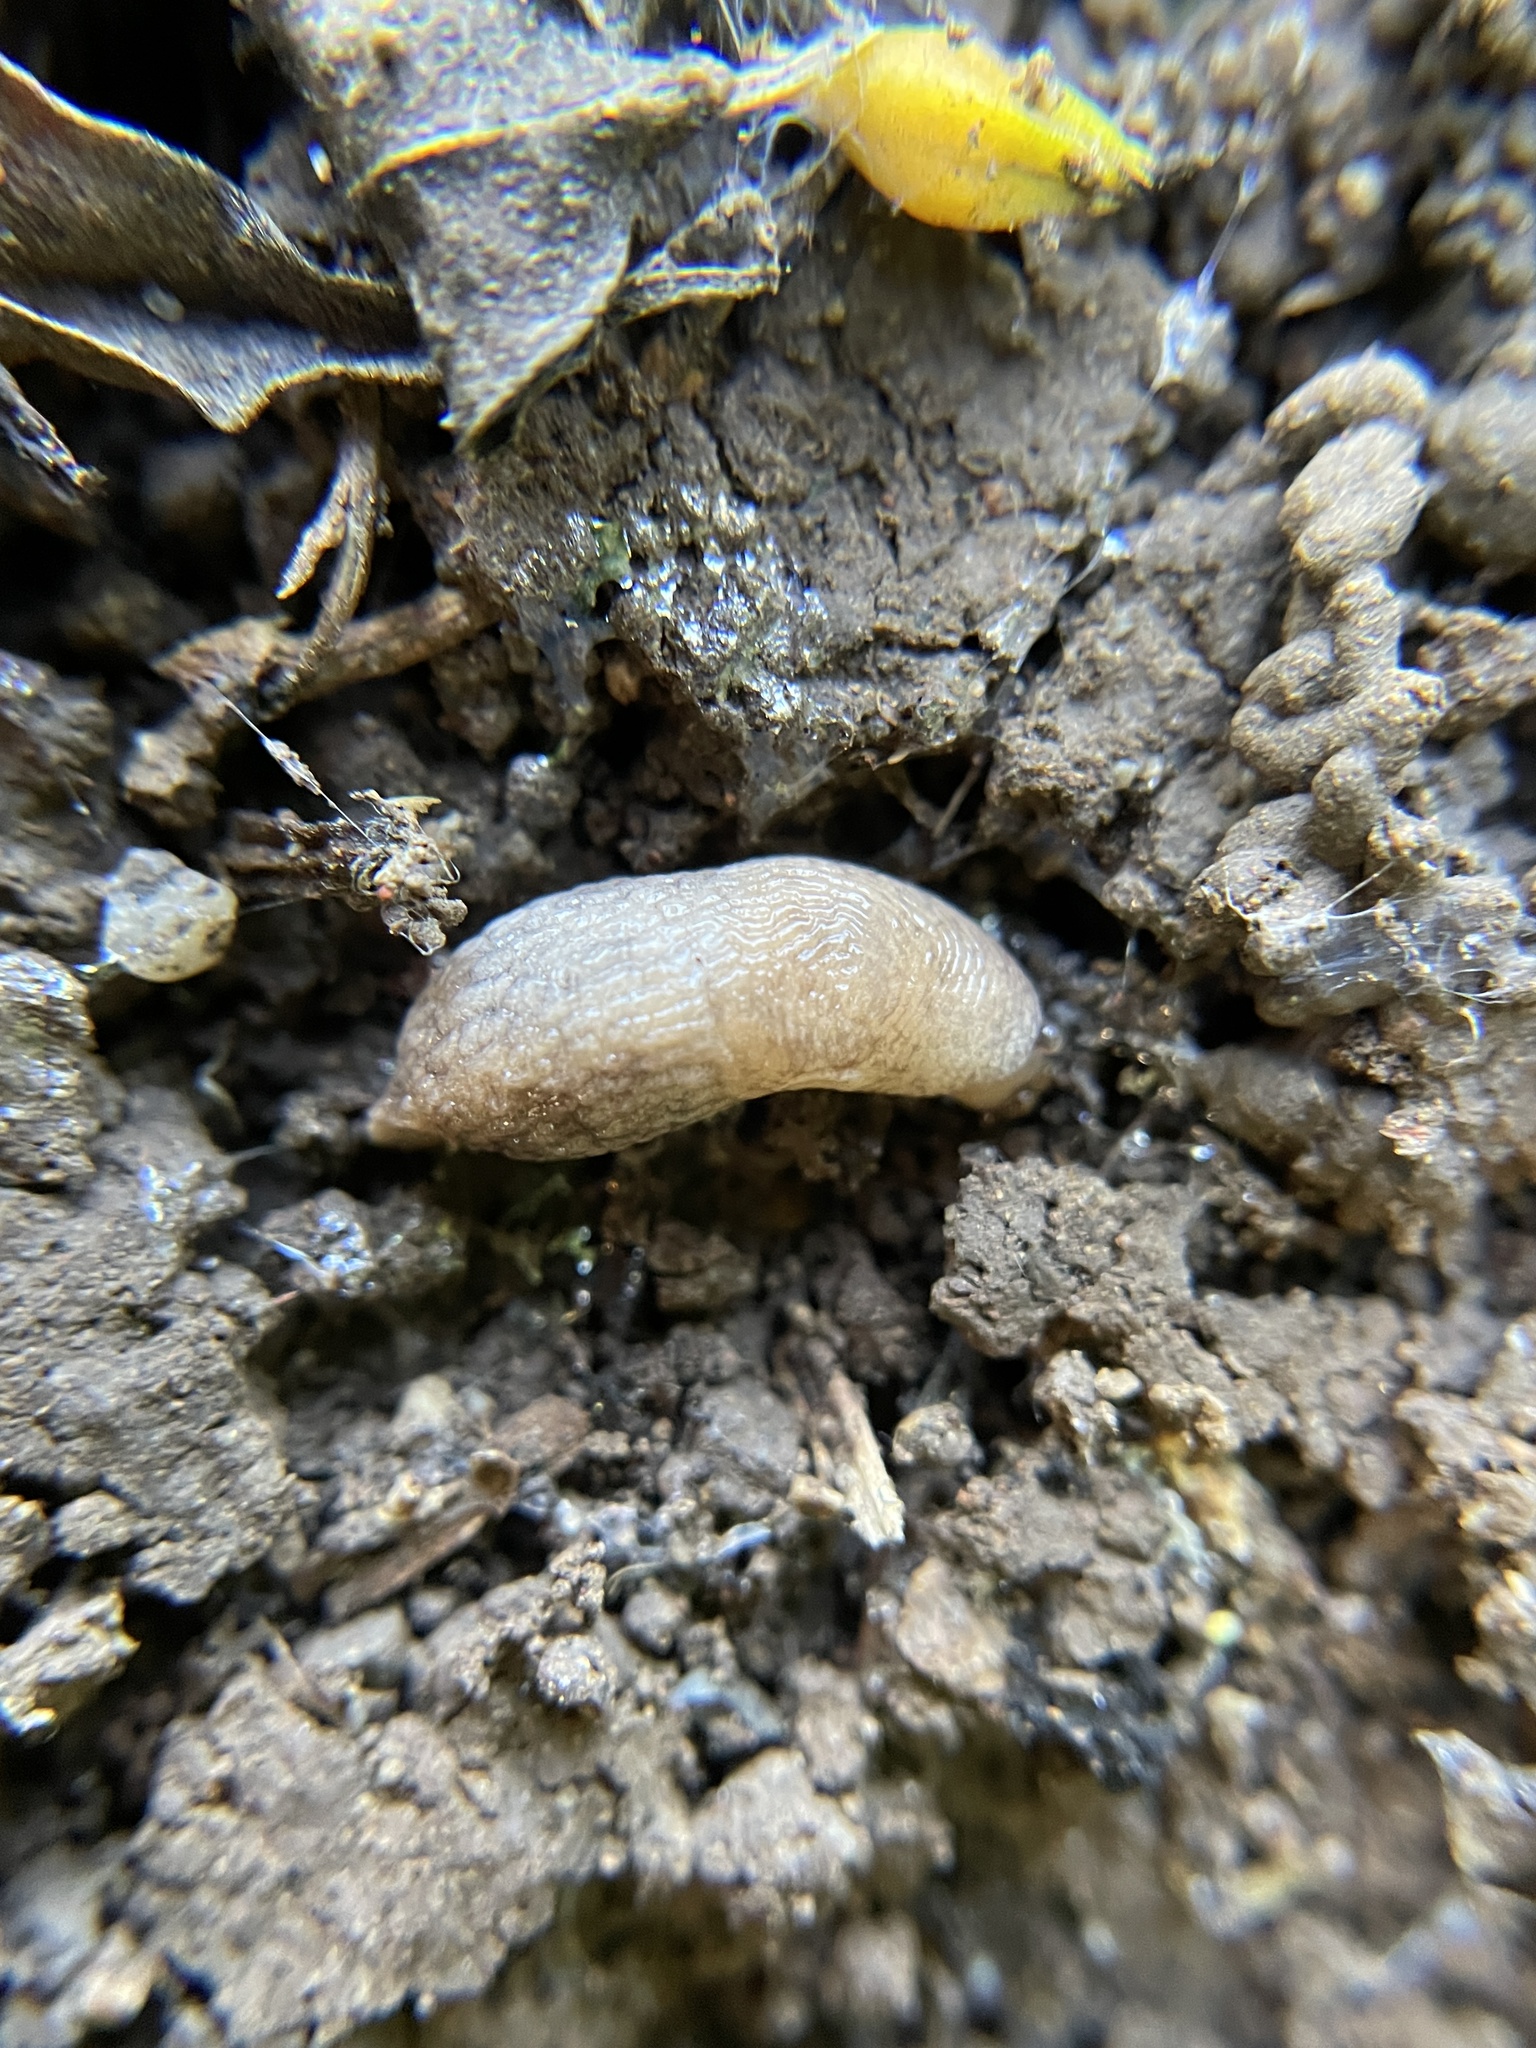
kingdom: Animalia
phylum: Mollusca
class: Gastropoda
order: Stylommatophora
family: Agriolimacidae
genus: Deroceras
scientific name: Deroceras reticulatum
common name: Gray field slug
